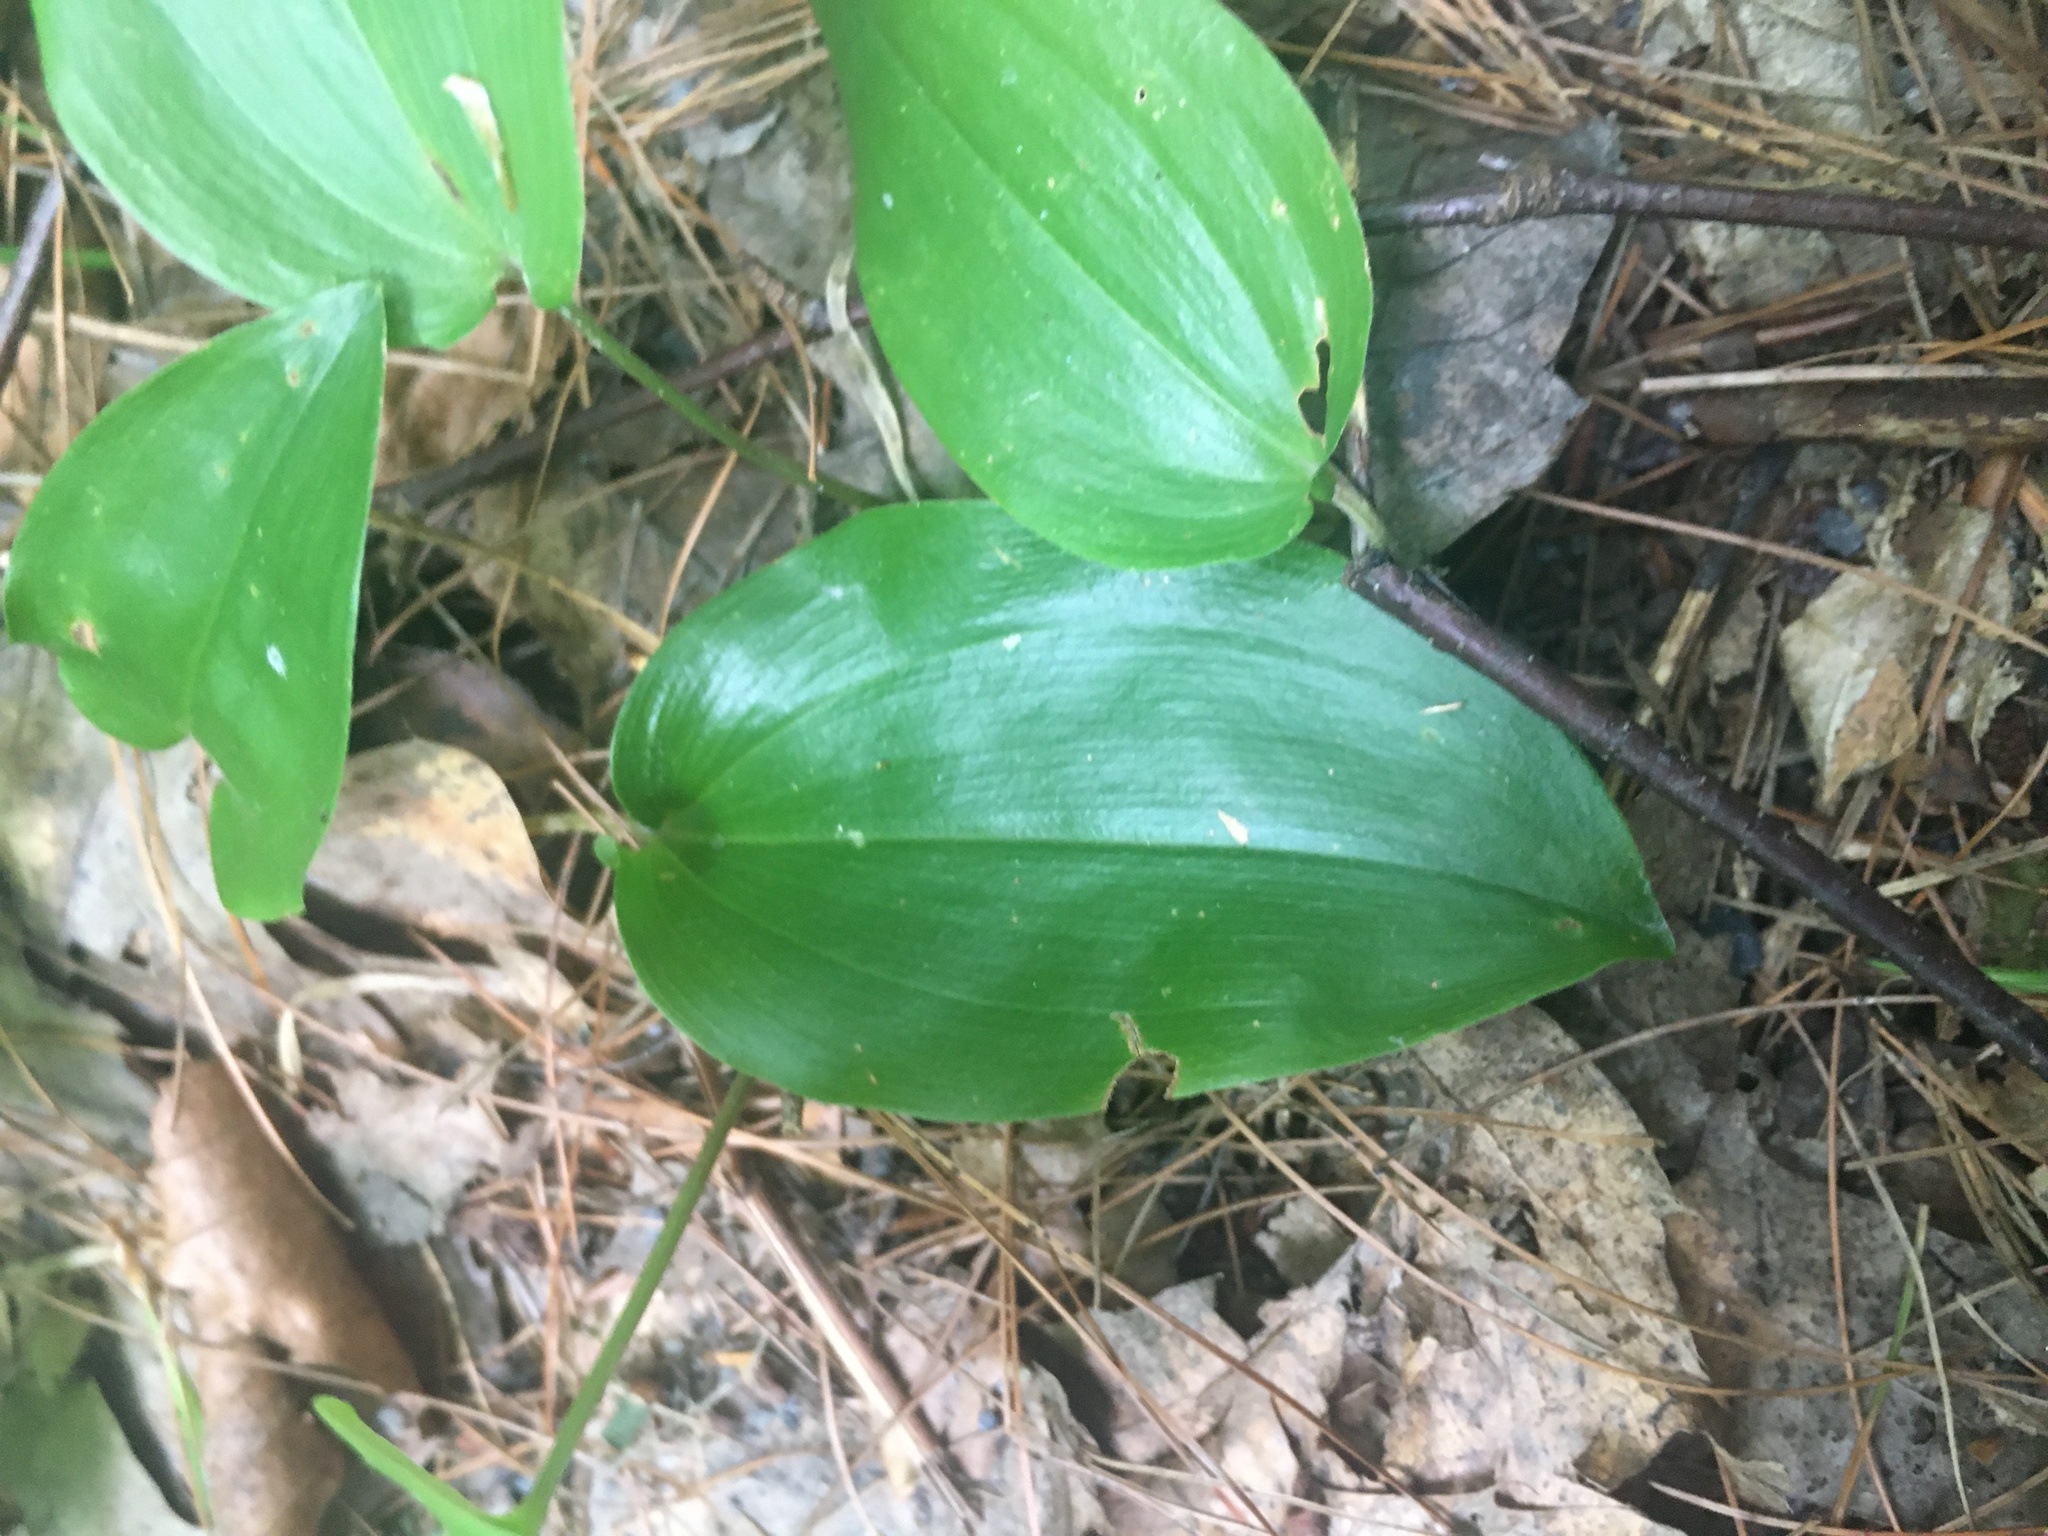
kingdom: Plantae
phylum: Tracheophyta
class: Liliopsida
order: Asparagales
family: Asparagaceae
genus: Maianthemum
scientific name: Maianthemum canadense
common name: False lily-of-the-valley
